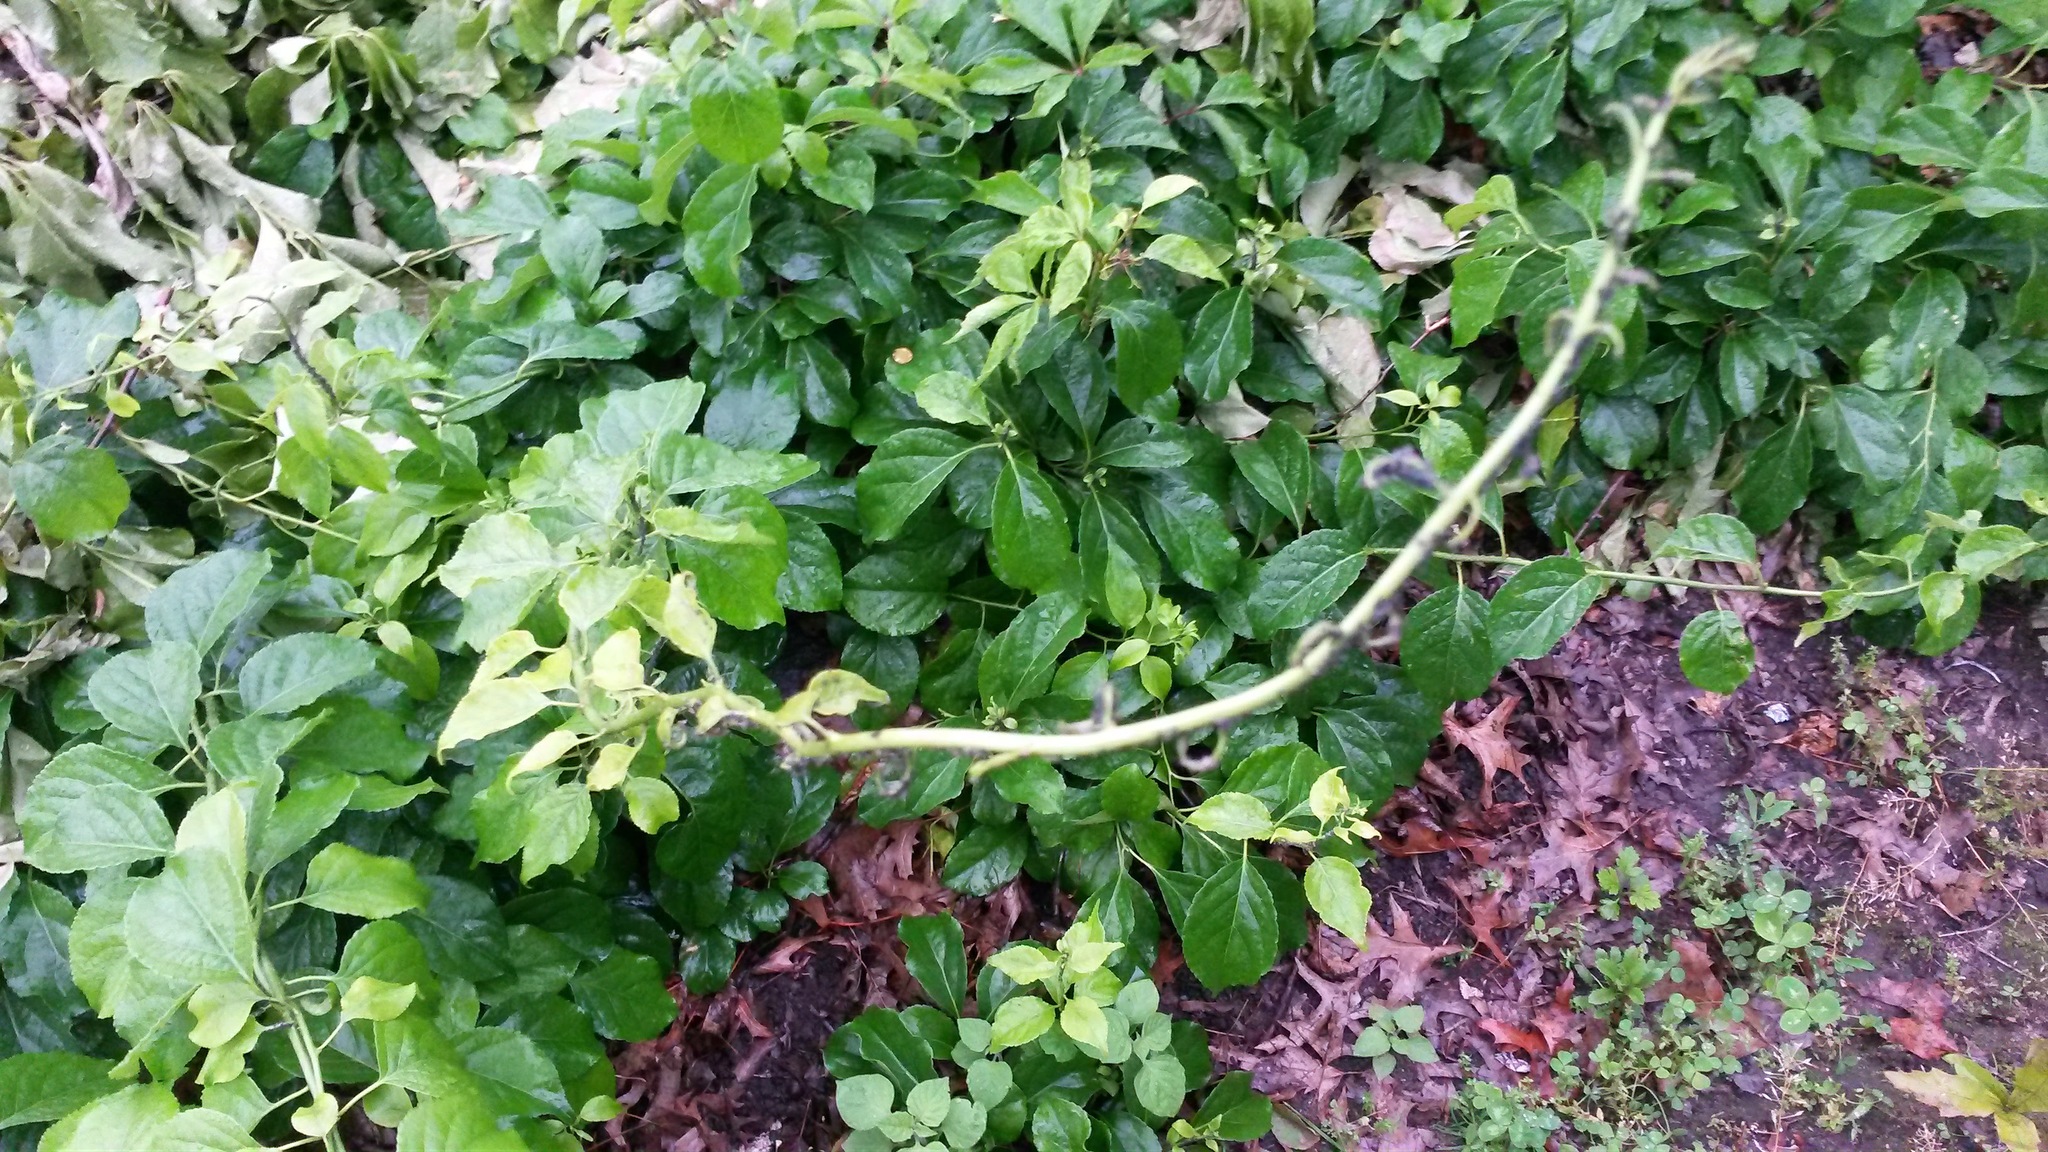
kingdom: Plantae
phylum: Tracheophyta
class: Magnoliopsida
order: Celastrales
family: Celastraceae
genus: Celastrus
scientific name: Celastrus orbiculatus
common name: Oriental bittersweet
